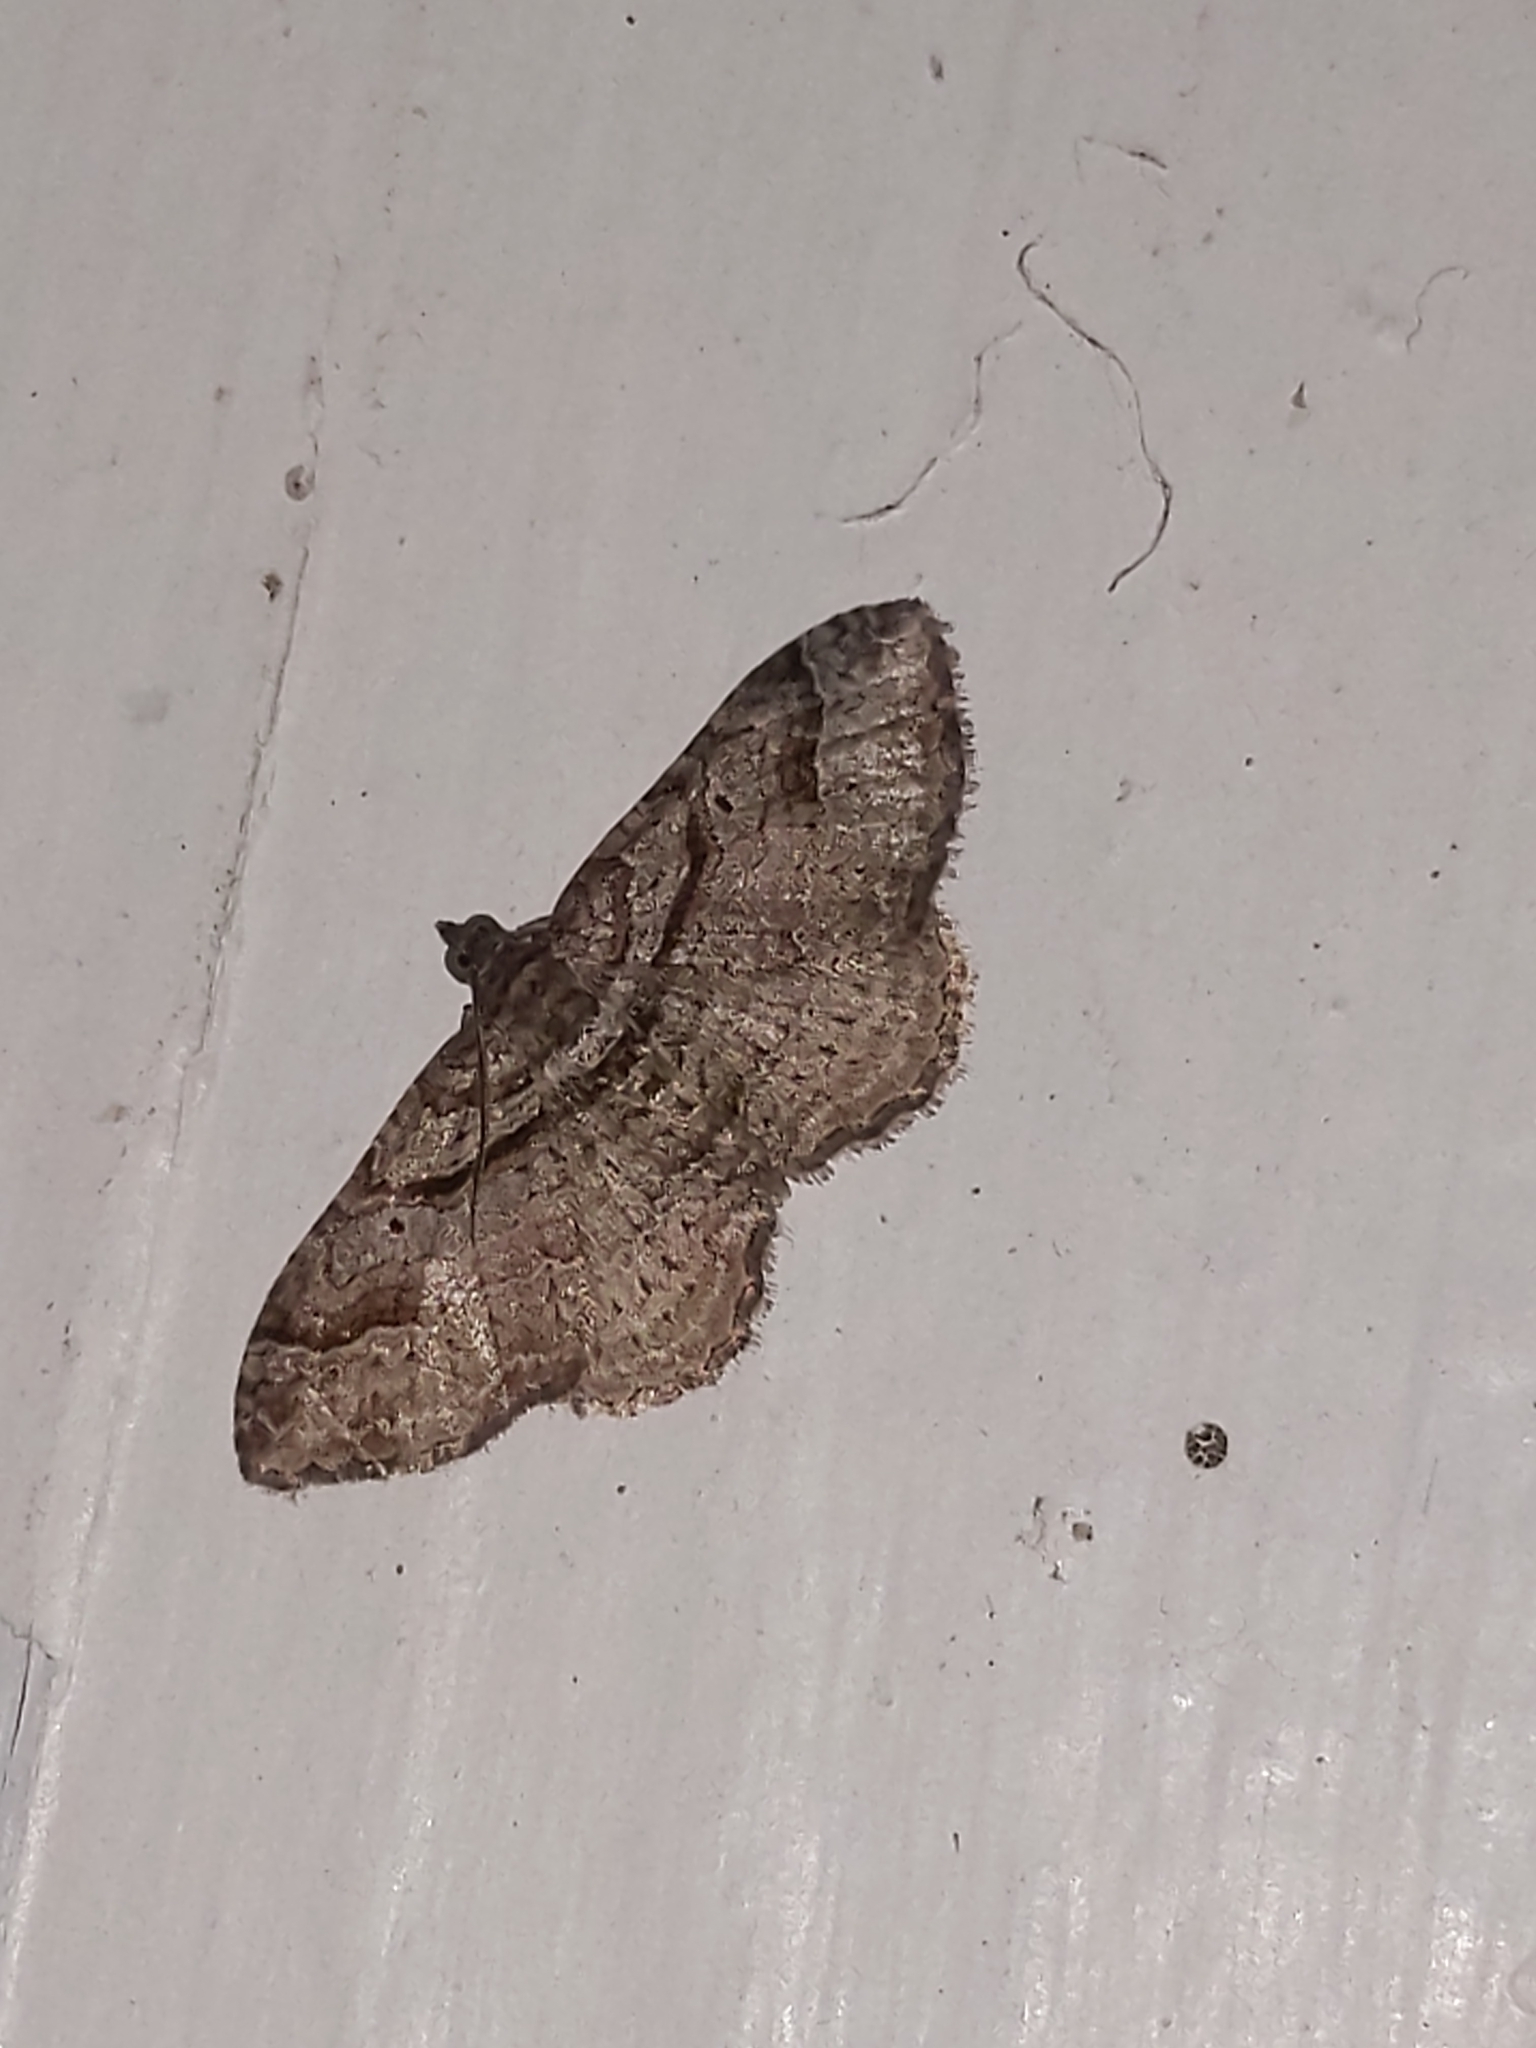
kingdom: Animalia
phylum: Arthropoda
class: Insecta
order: Lepidoptera
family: Geometridae
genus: Costaconvexa
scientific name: Costaconvexa centrostrigaria
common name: Bent-line carpet
